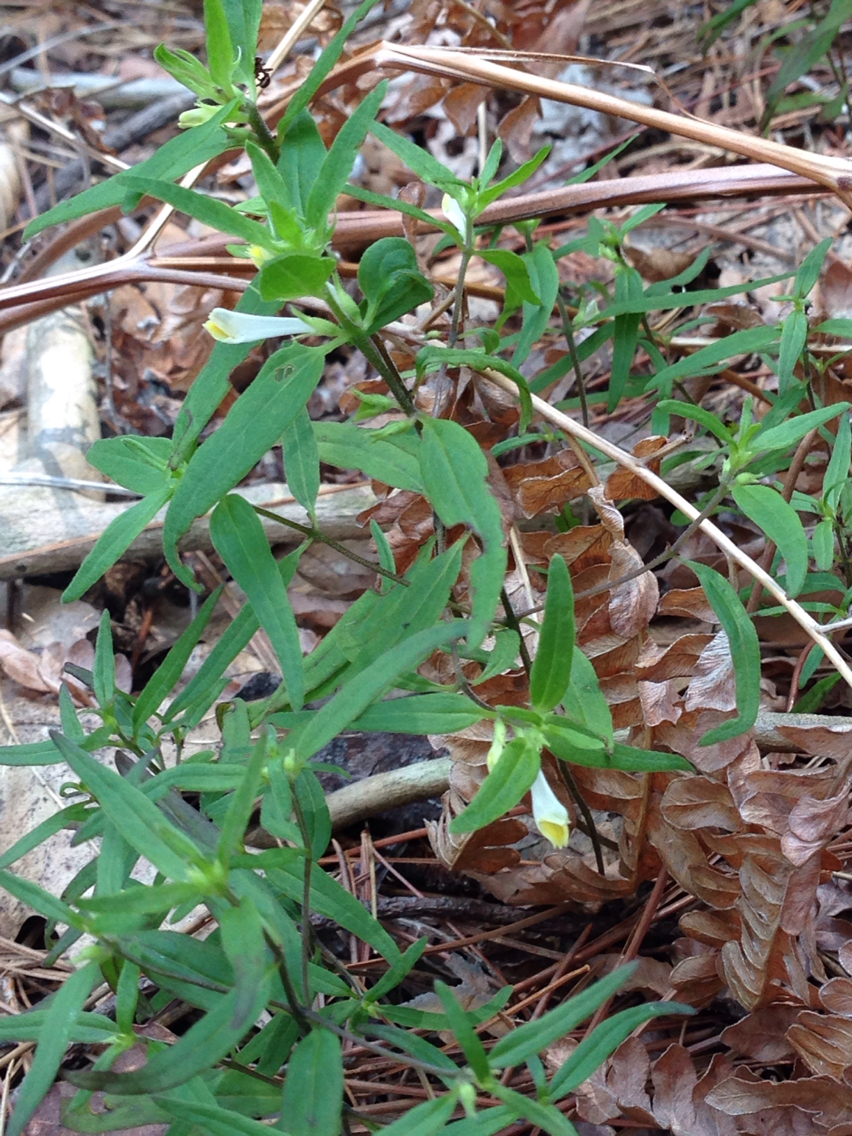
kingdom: Plantae
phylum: Tracheophyta
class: Magnoliopsida
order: Lamiales
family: Orobanchaceae
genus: Melampyrum
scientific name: Melampyrum lineare
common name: American cow-wheat
